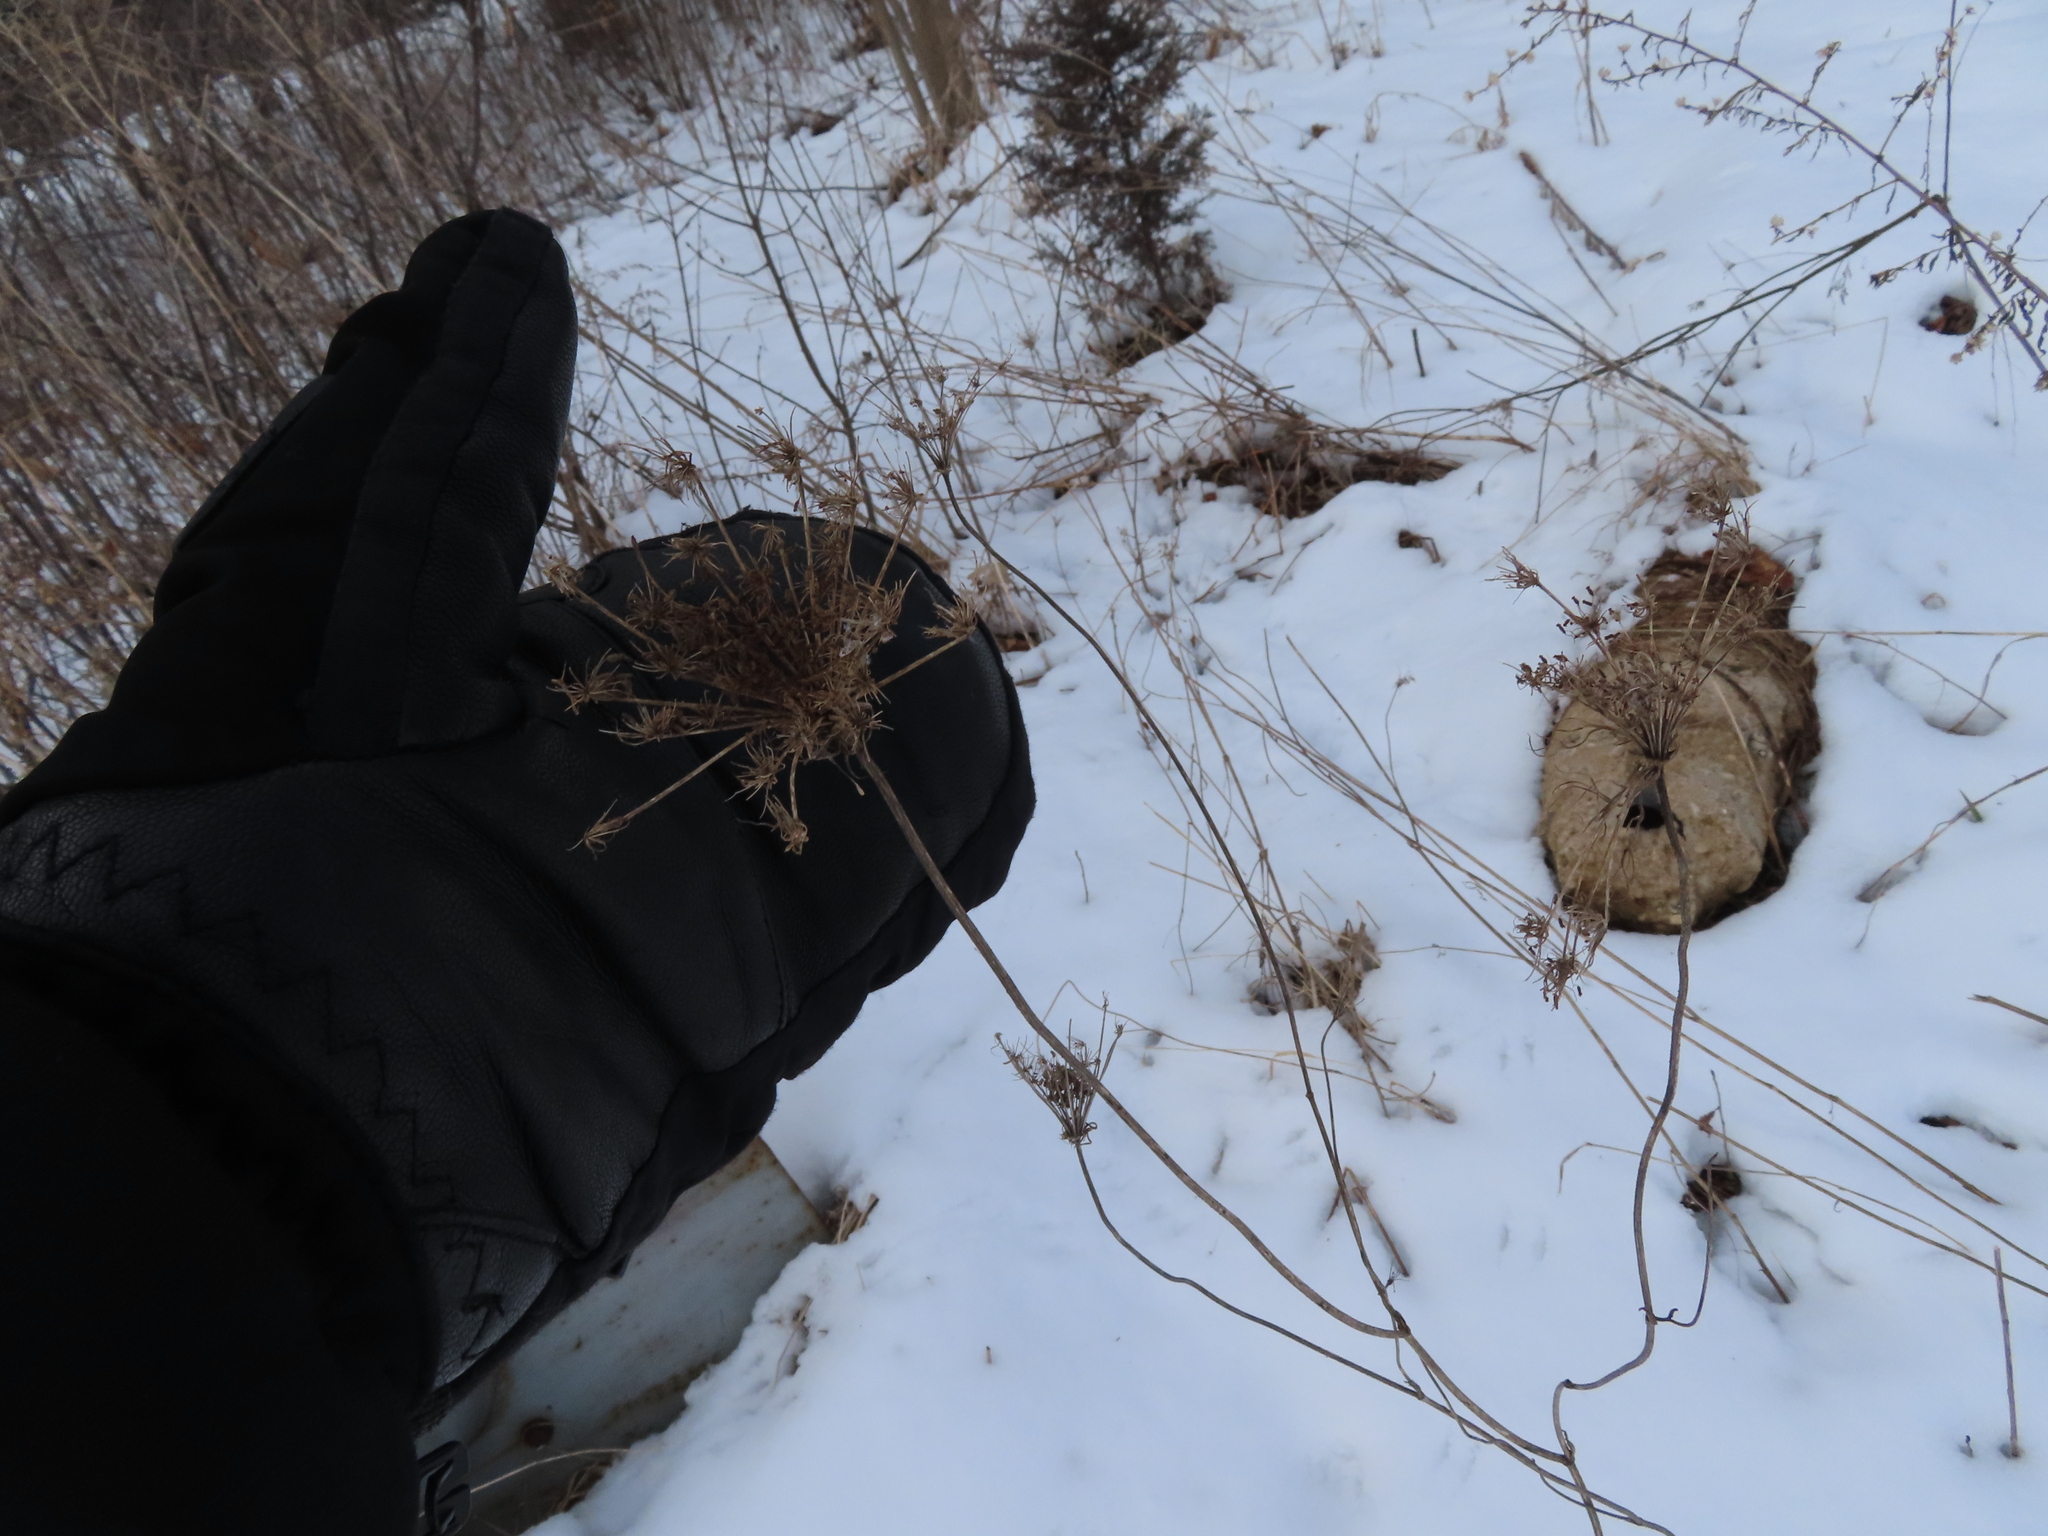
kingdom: Plantae
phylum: Tracheophyta
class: Magnoliopsida
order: Apiales
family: Apiaceae
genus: Daucus
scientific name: Daucus carota
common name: Wild carrot
